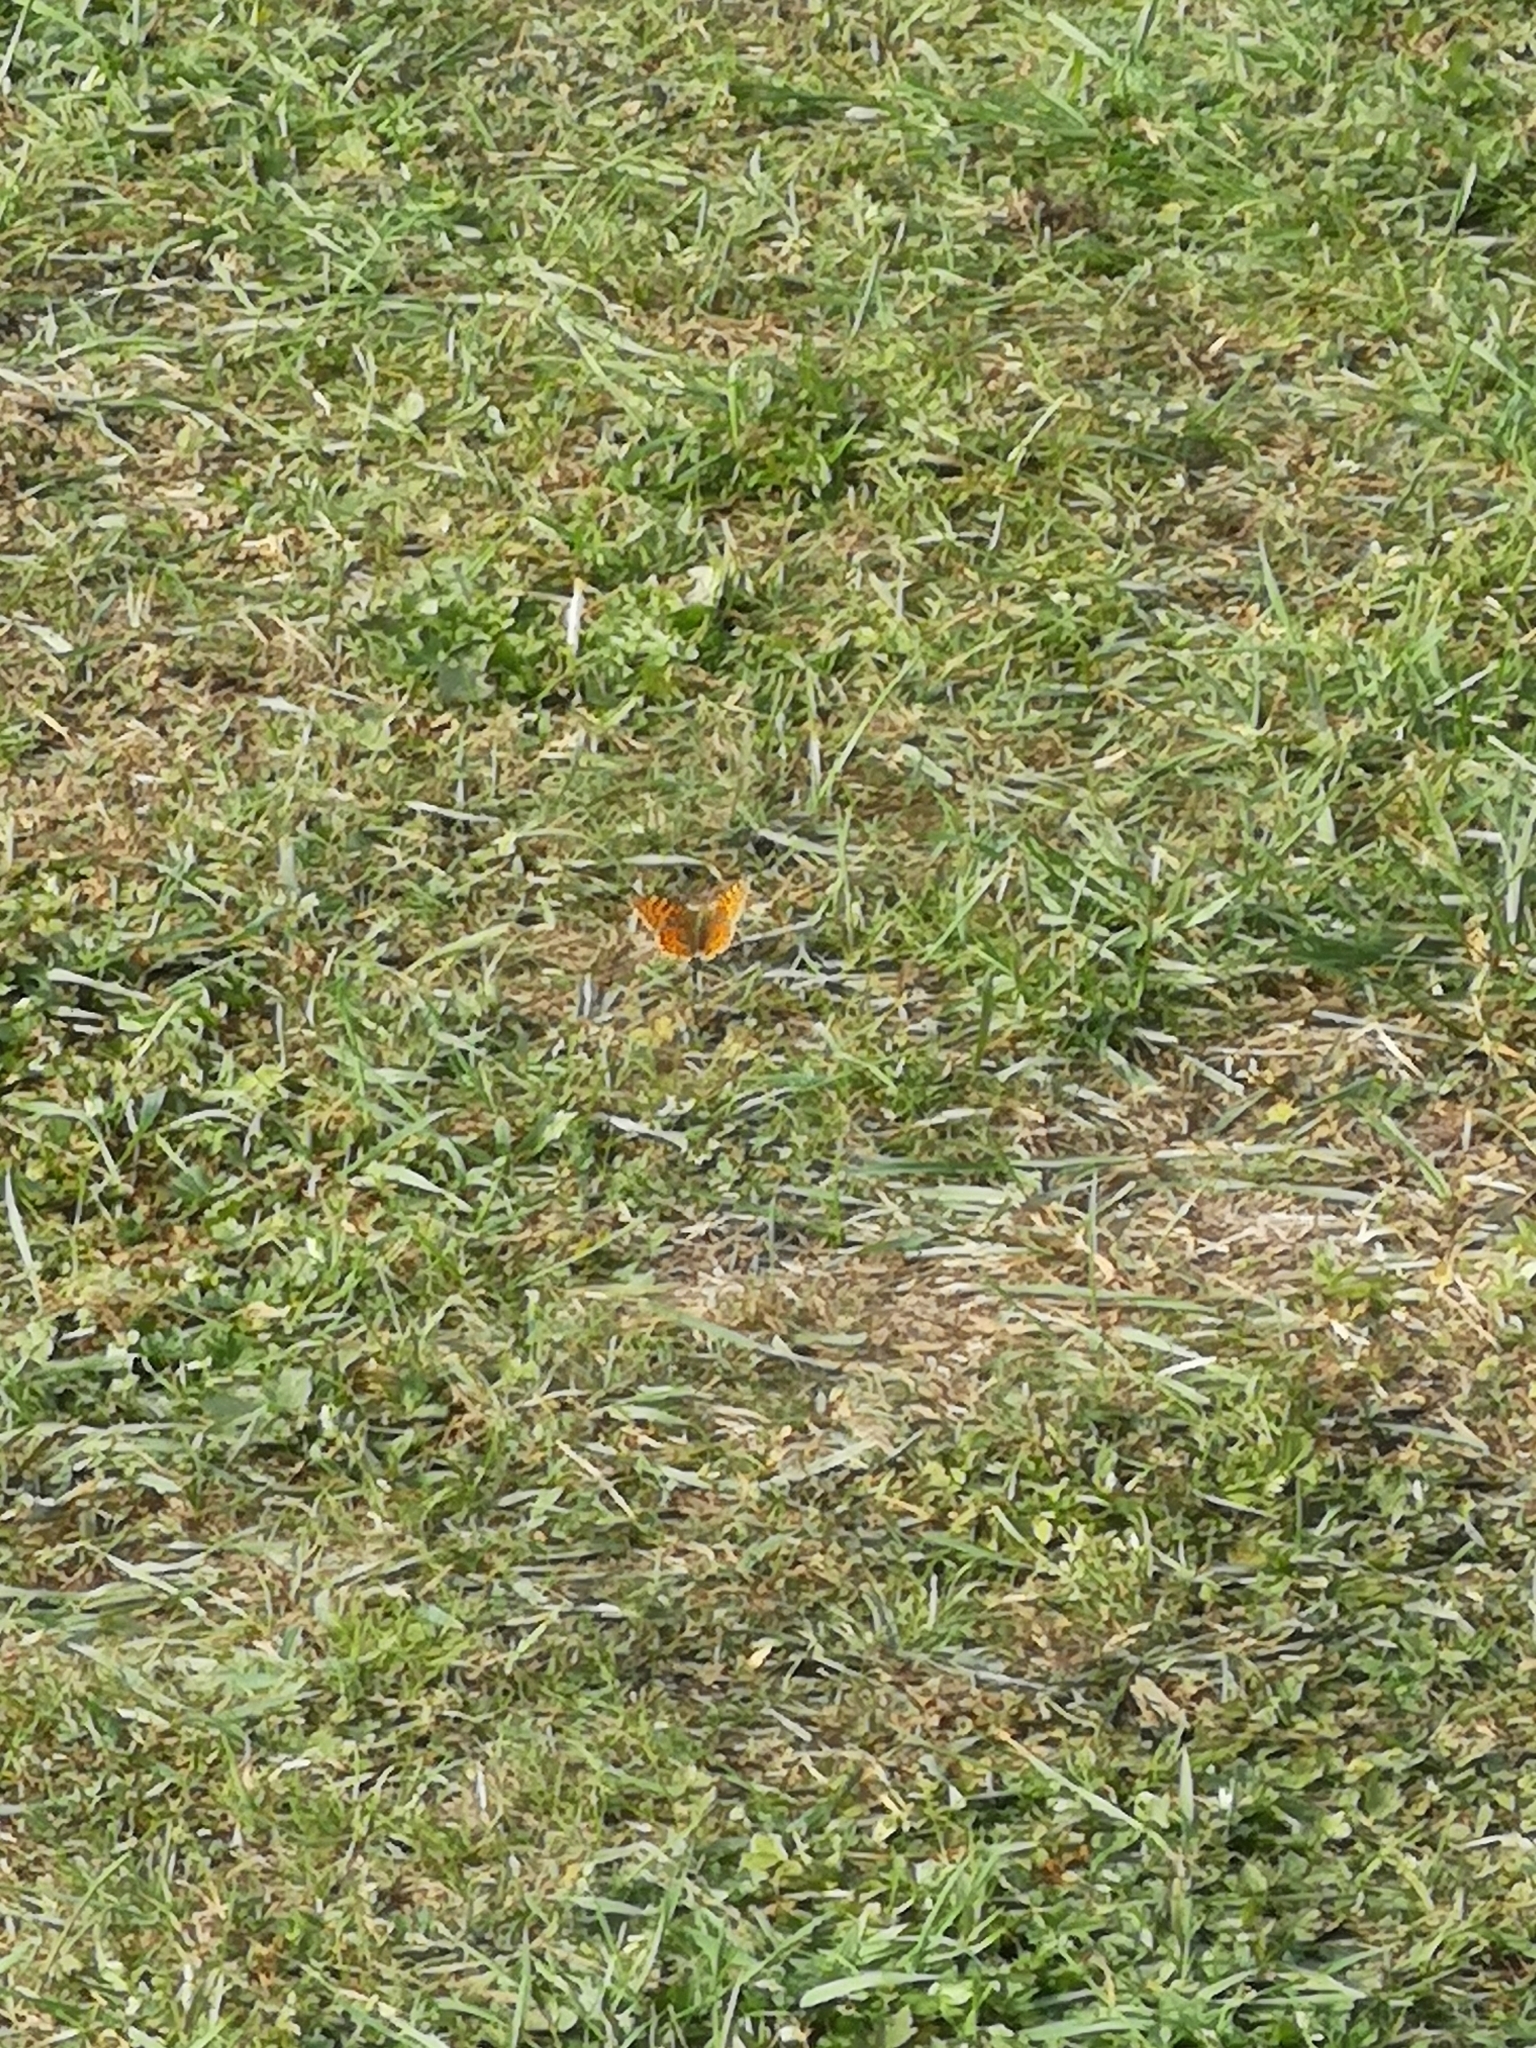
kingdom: Animalia
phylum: Arthropoda
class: Insecta
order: Lepidoptera
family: Nymphalidae
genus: Issoria
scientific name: Issoria lathonia
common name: Queen of spain fritillary
